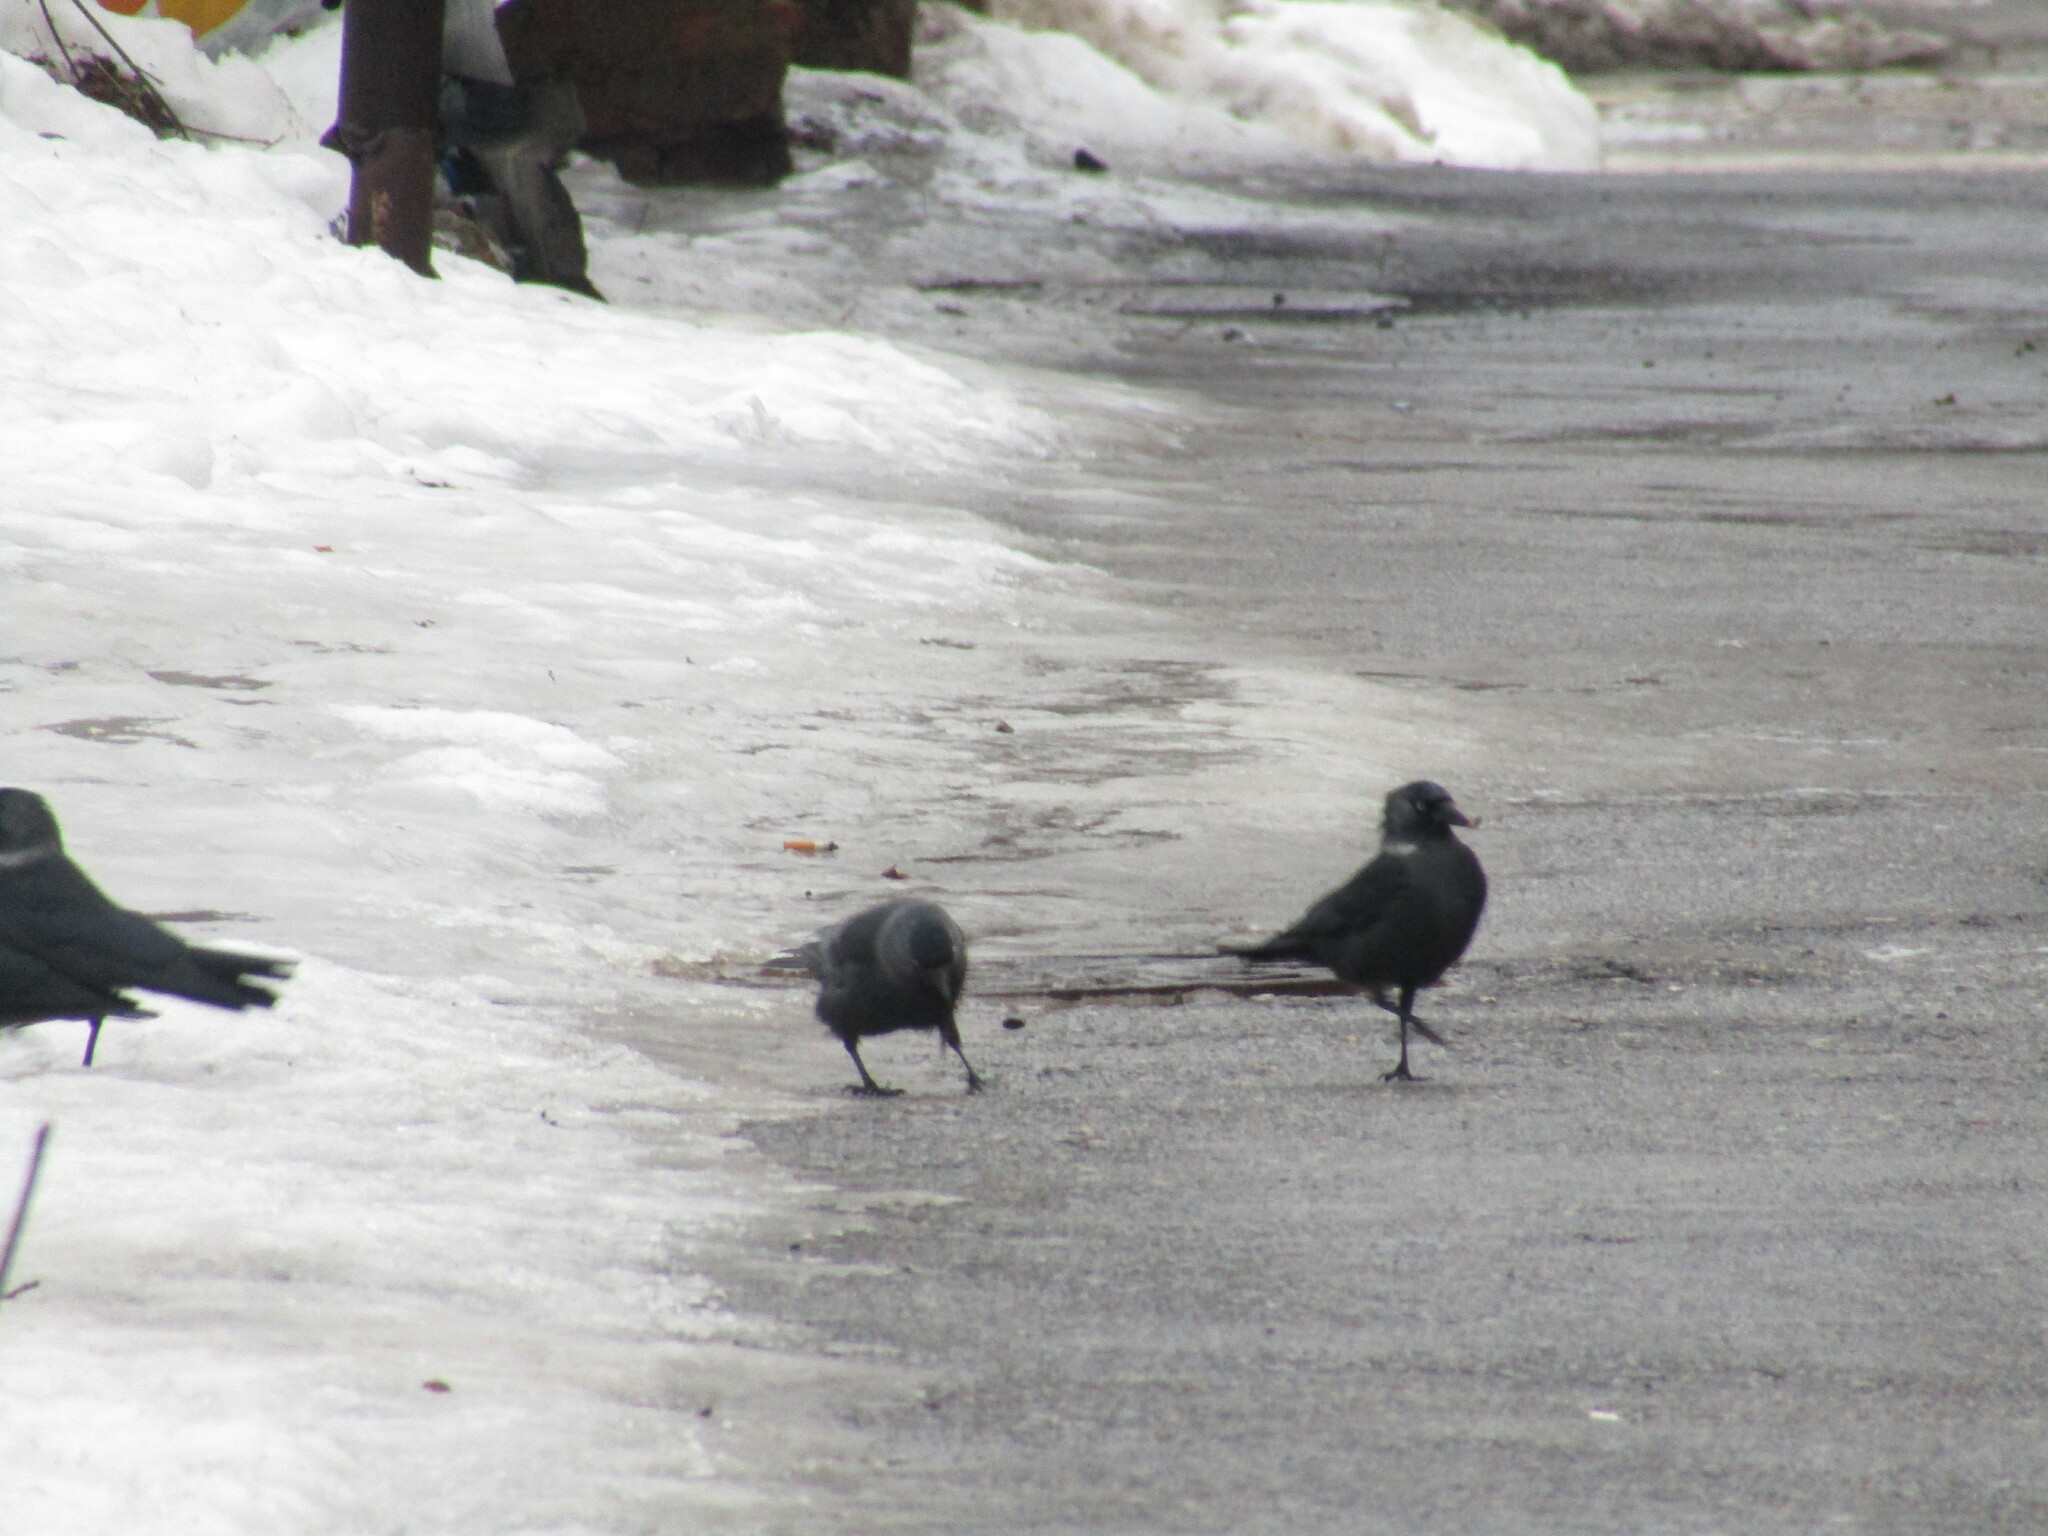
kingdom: Animalia
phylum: Chordata
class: Aves
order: Passeriformes
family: Corvidae
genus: Coloeus
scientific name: Coloeus monedula
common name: Western jackdaw
